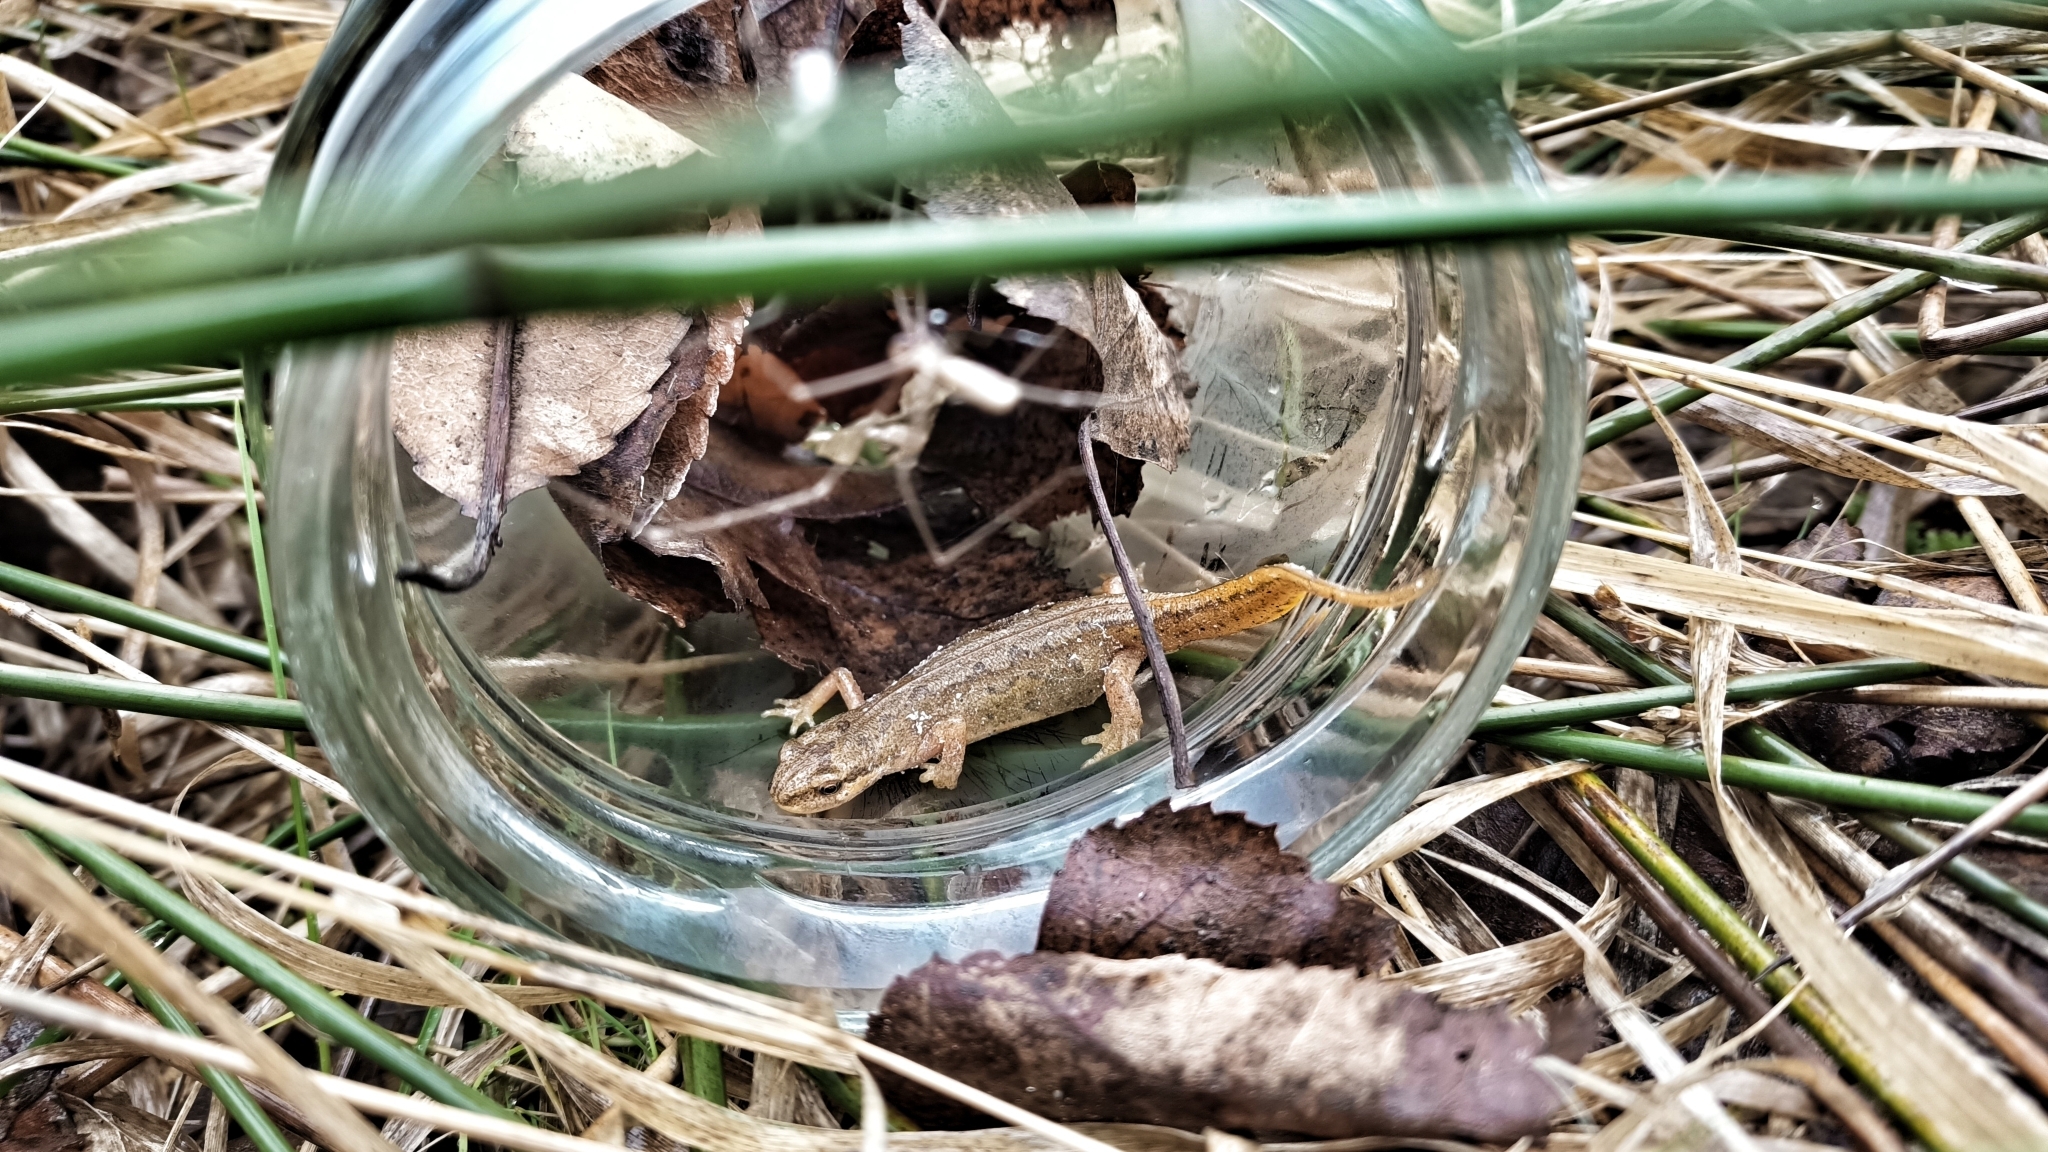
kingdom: Animalia
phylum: Chordata
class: Amphibia
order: Caudata
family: Salamandridae
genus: Lissotriton
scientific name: Lissotriton vulgaris
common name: Smooth newt
